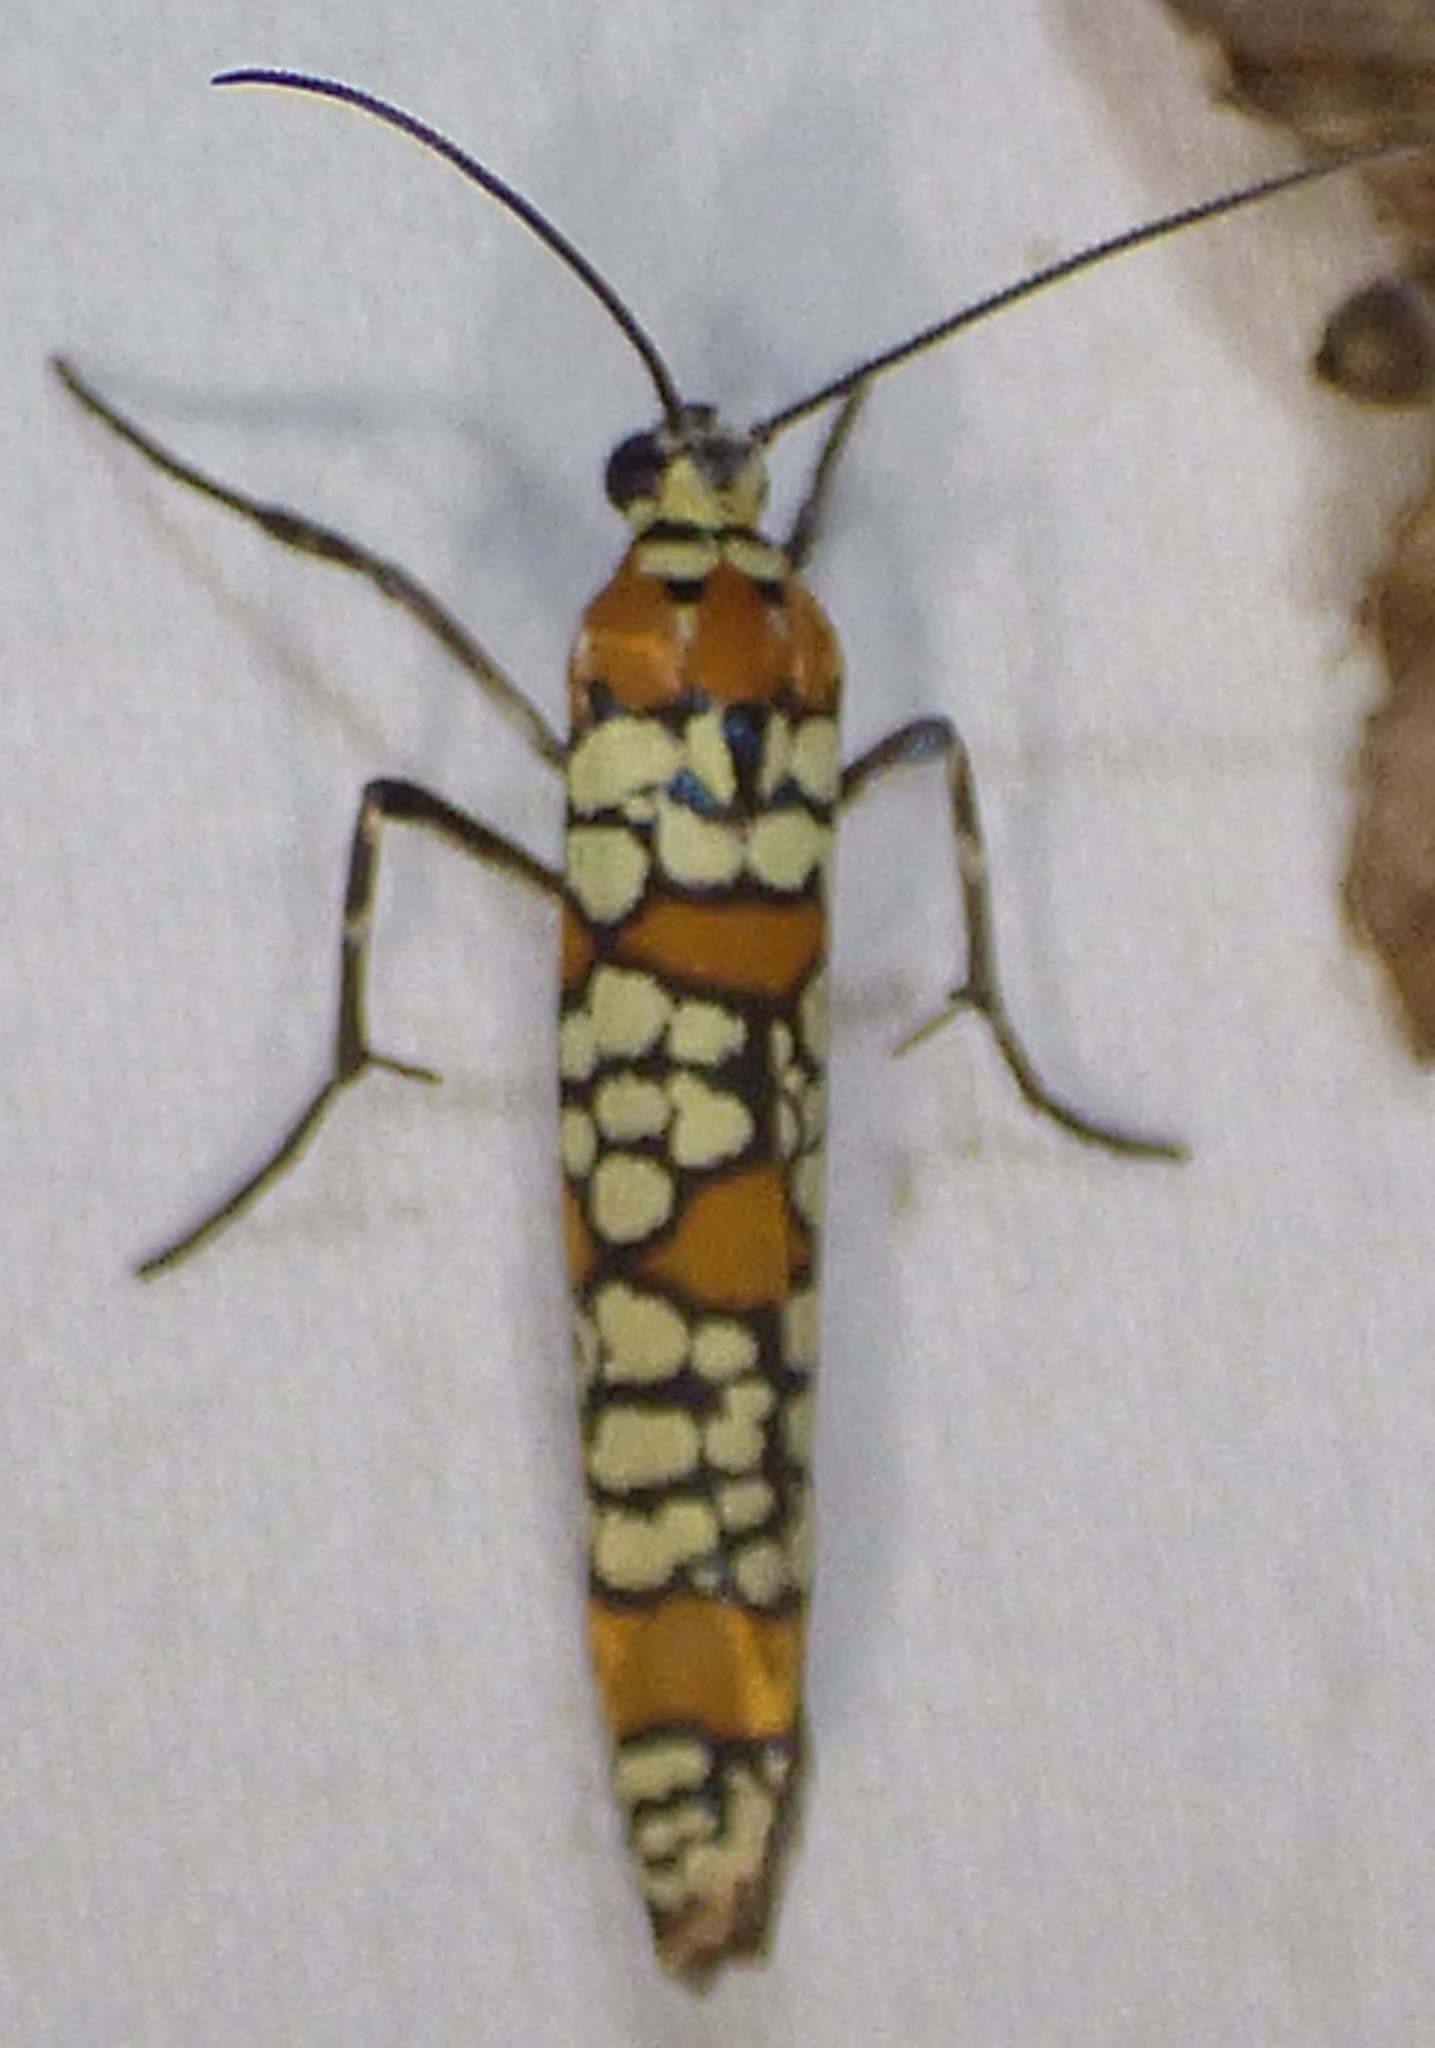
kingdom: Animalia
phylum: Arthropoda
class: Insecta
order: Lepidoptera
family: Attevidae
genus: Atteva
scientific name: Atteva punctella
